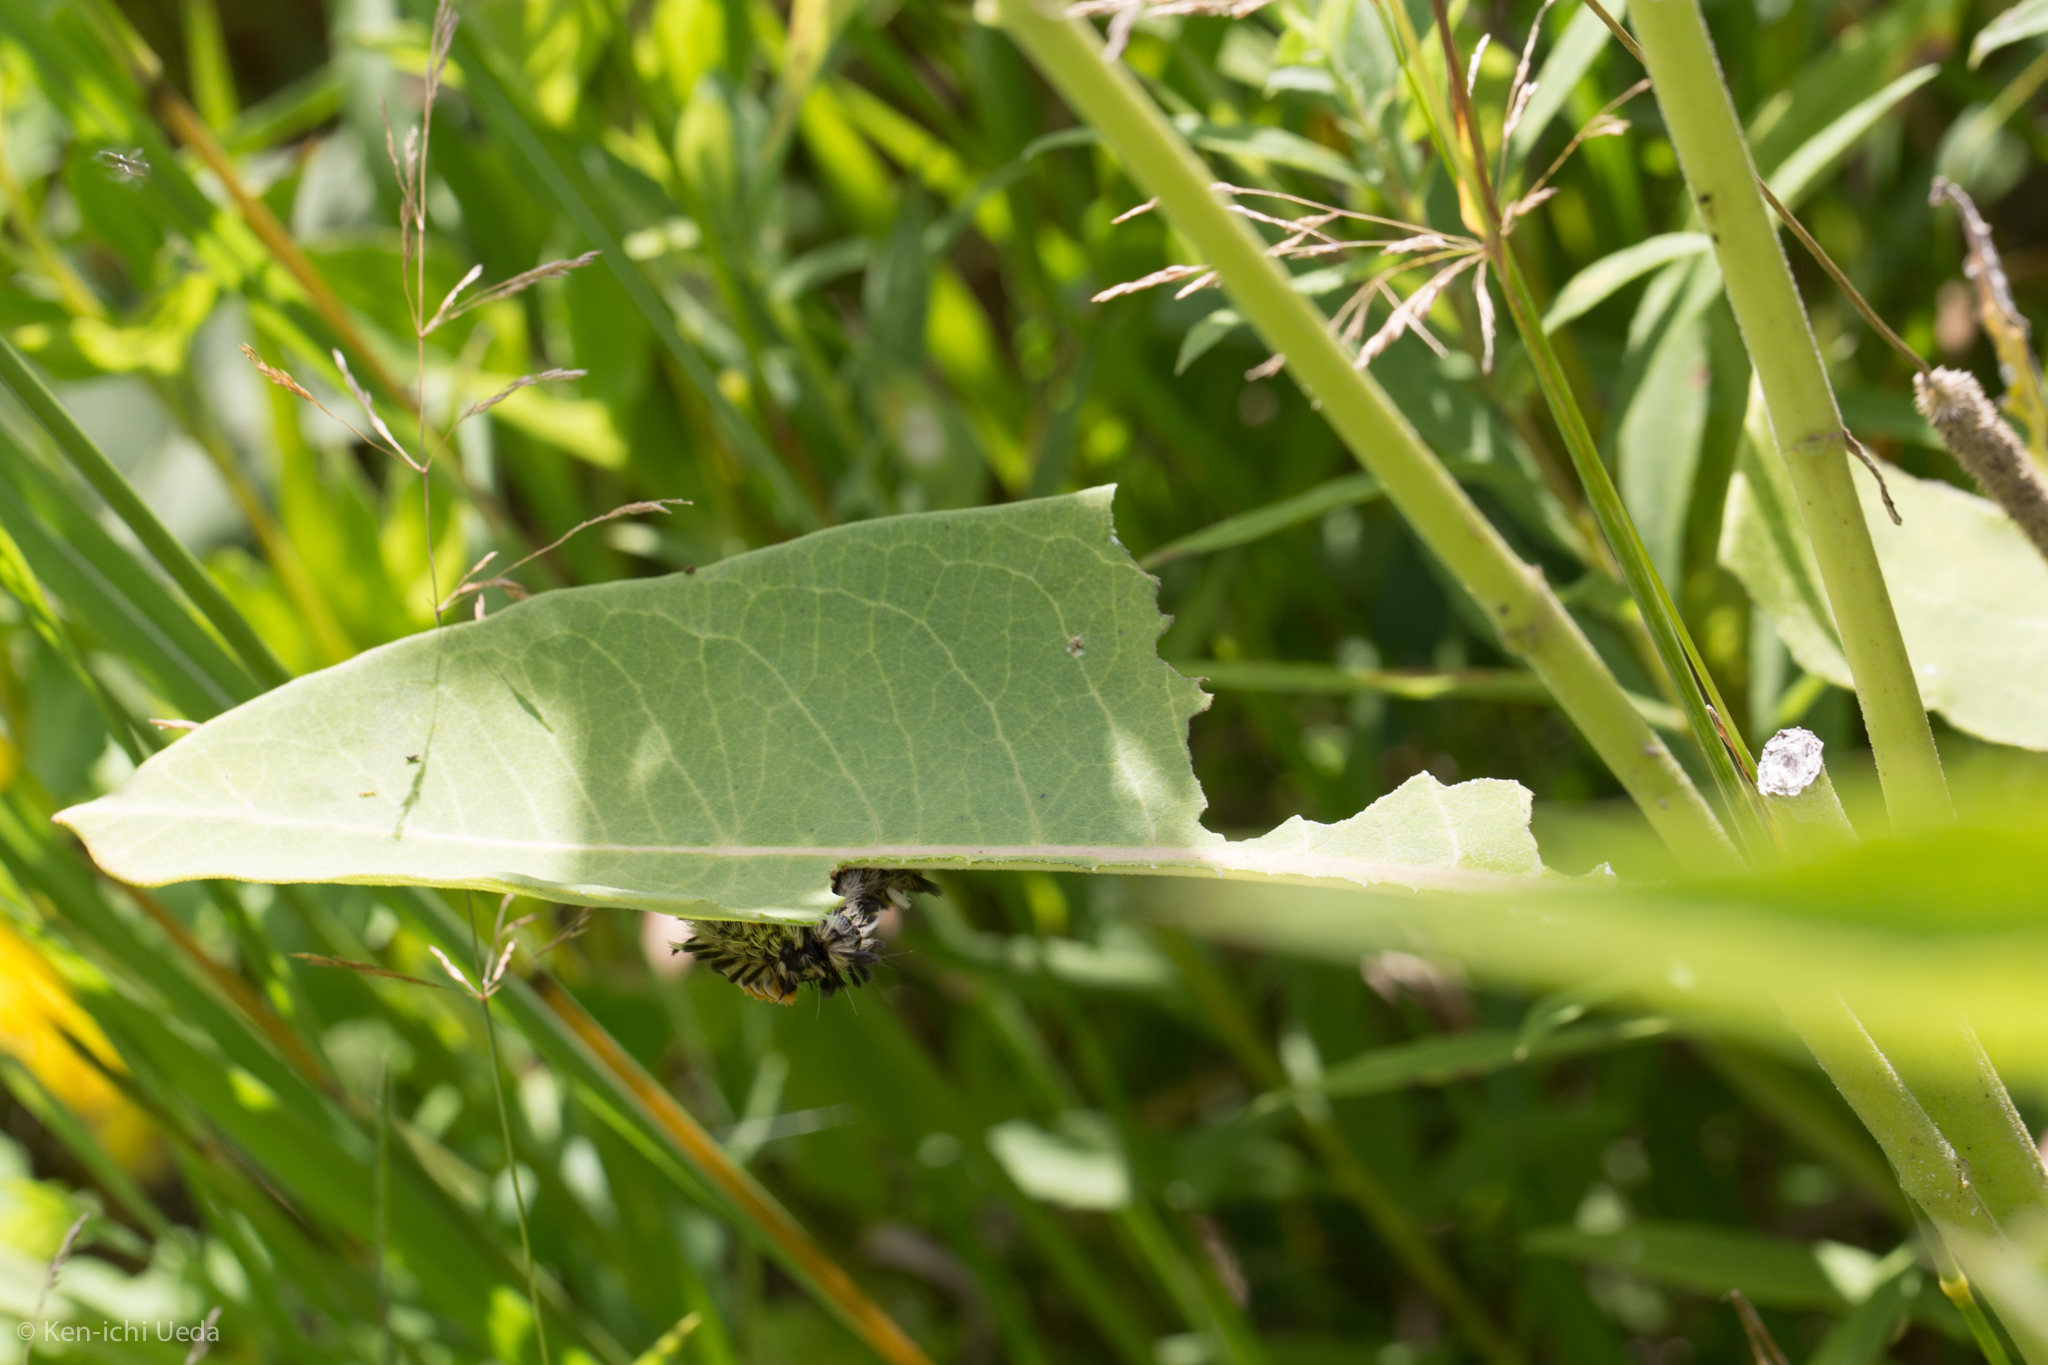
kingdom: Animalia
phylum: Arthropoda
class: Insecta
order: Lepidoptera
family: Erebidae
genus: Euchaetes
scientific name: Euchaetes egle
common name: Milkweed tussock moth
